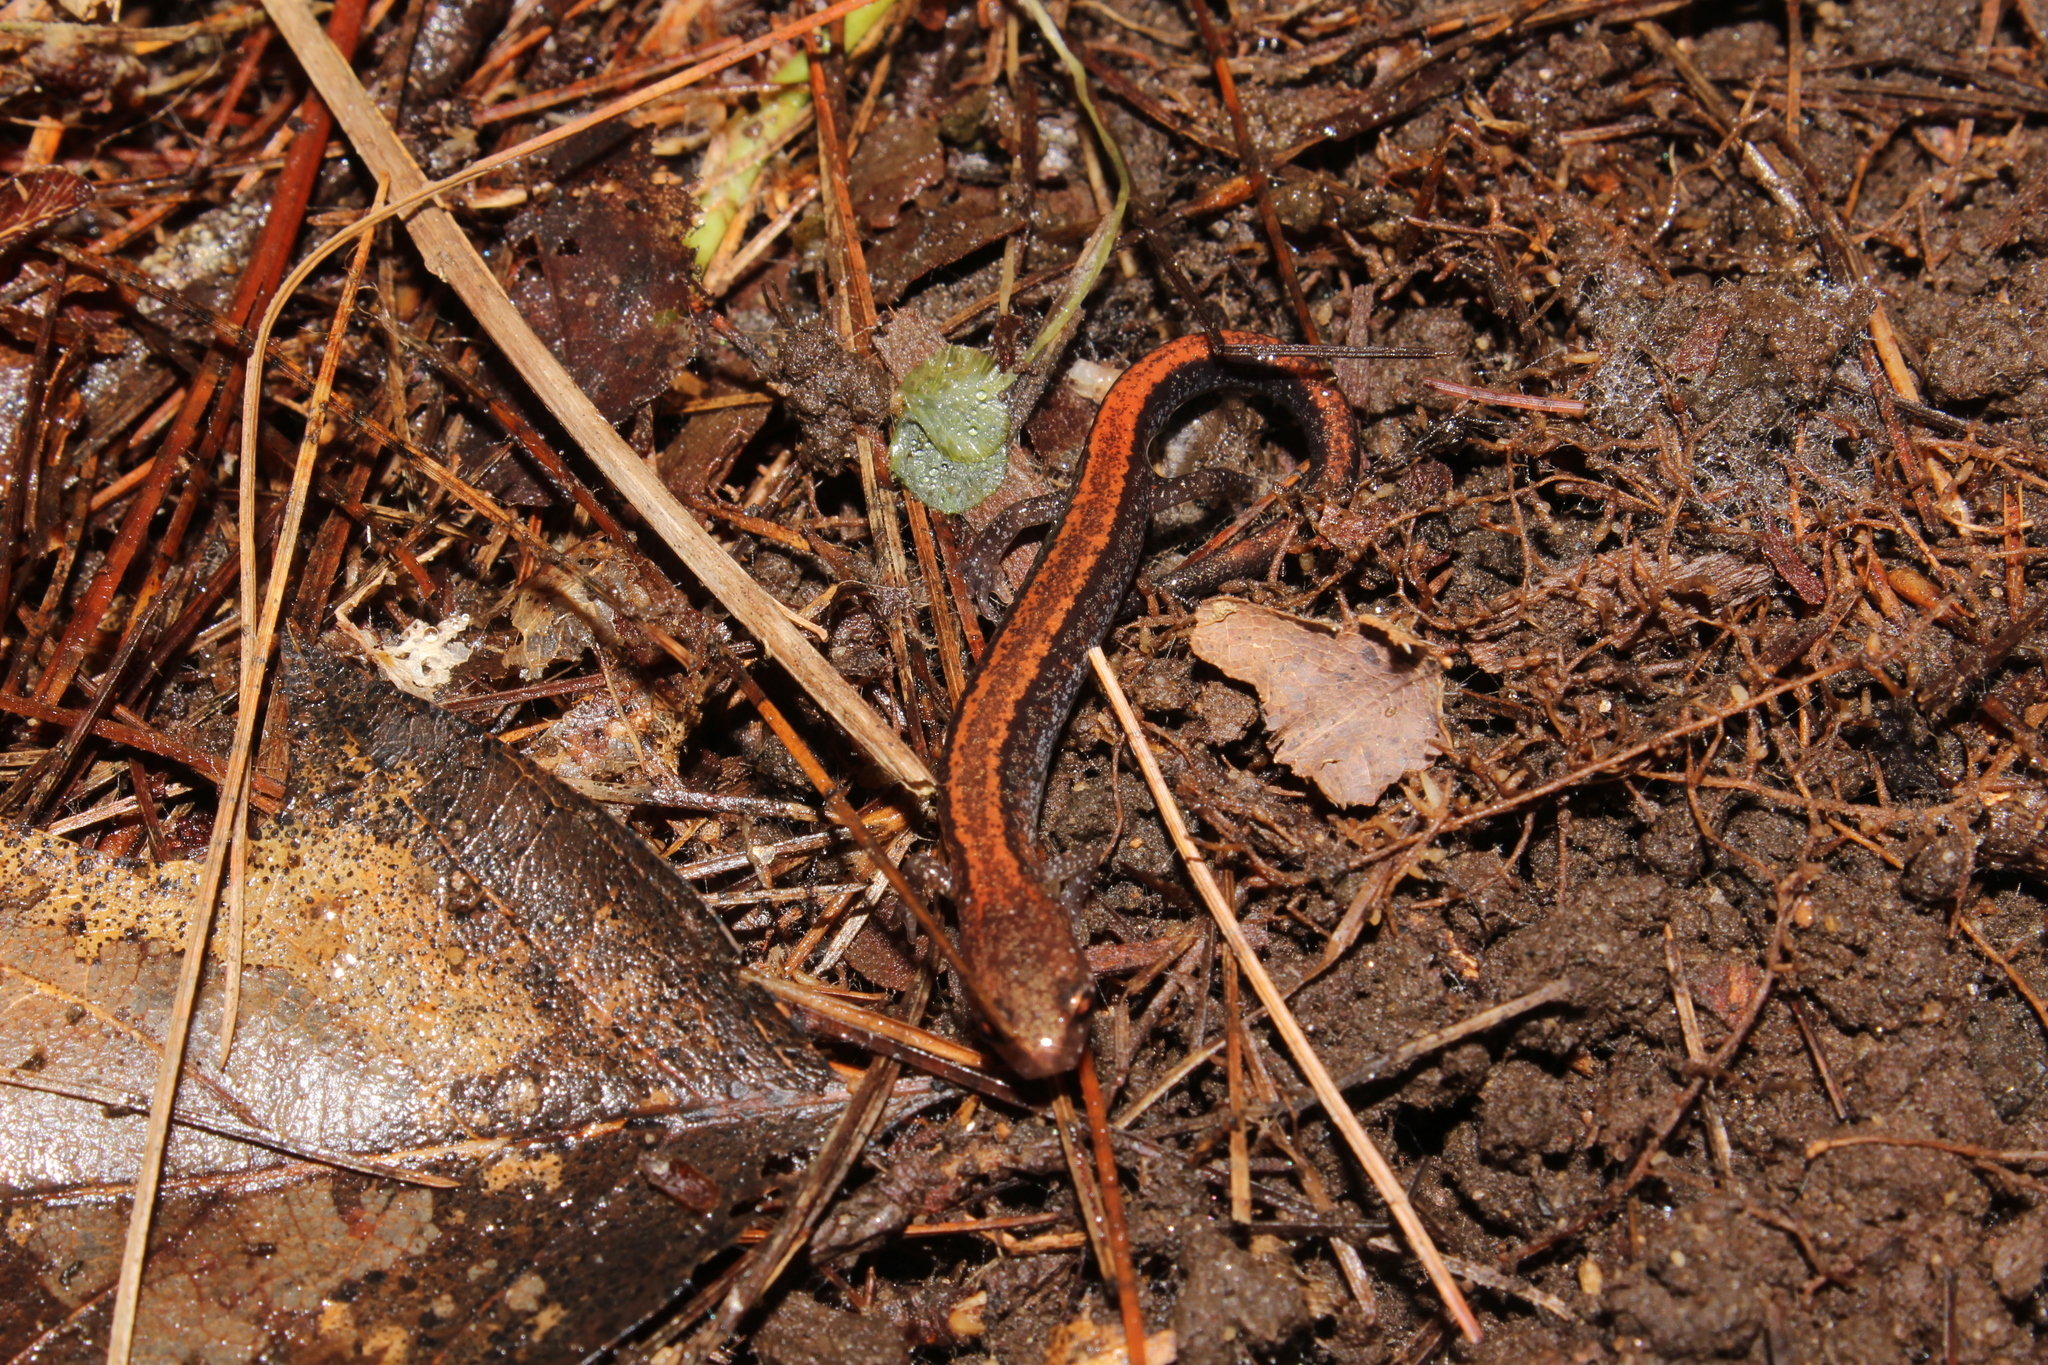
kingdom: Animalia
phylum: Chordata
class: Amphibia
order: Caudata
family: Plethodontidae
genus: Plethodon
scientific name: Plethodon cinereus
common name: Redback salamander
